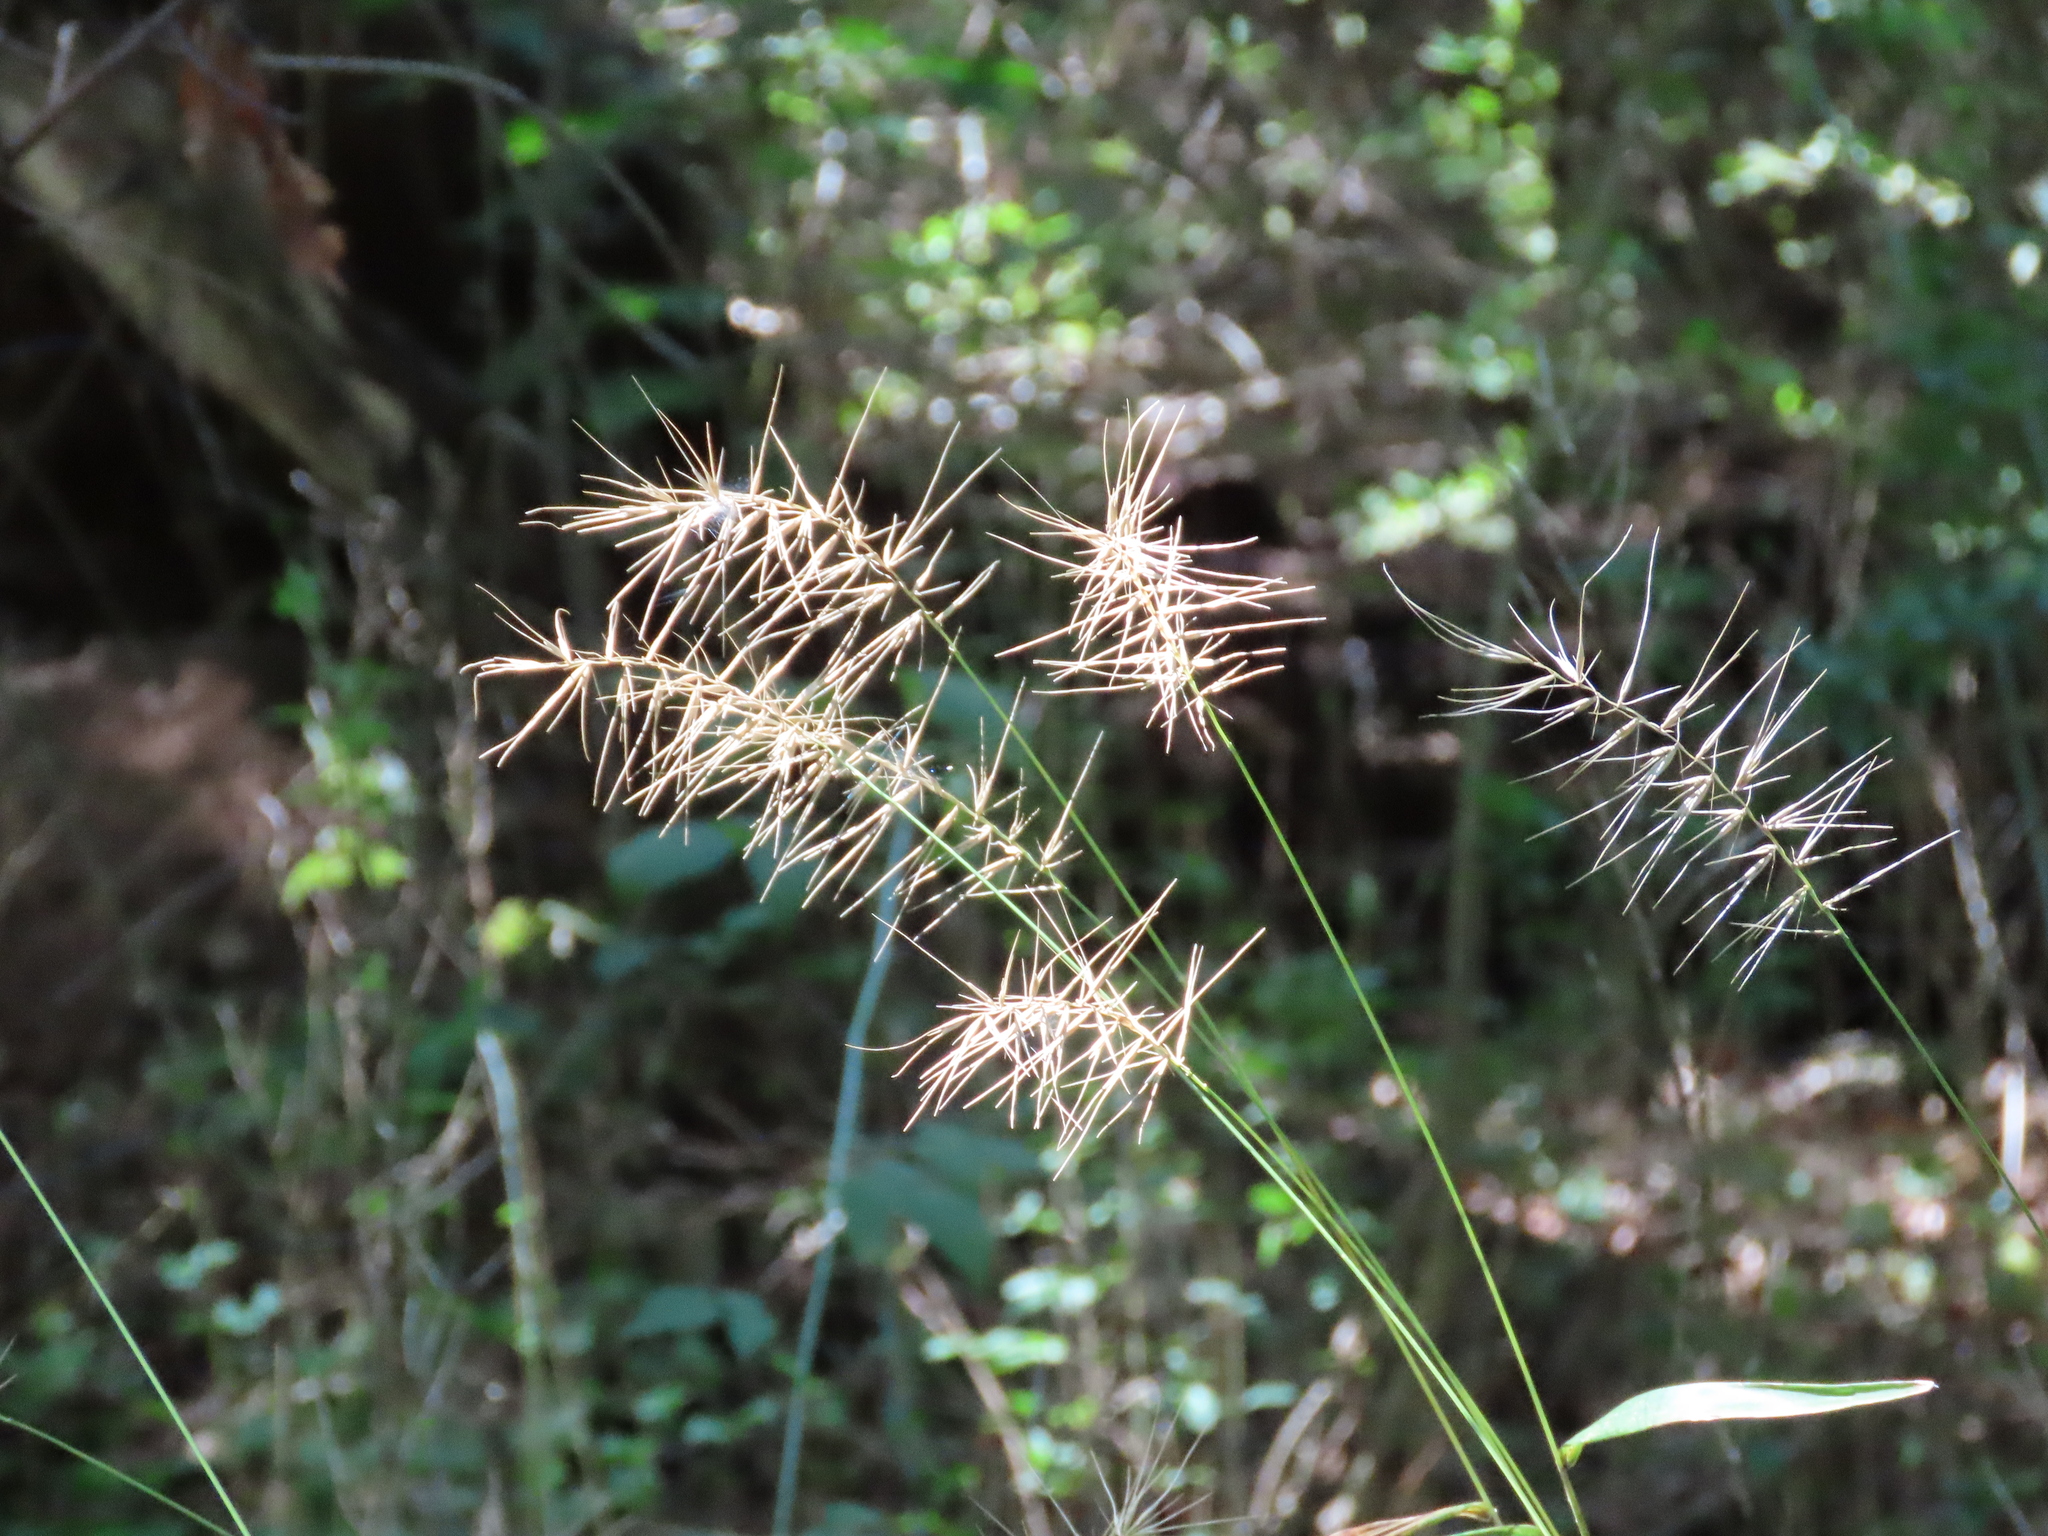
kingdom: Plantae
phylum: Tracheophyta
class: Liliopsida
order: Poales
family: Poaceae
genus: Elymus
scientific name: Elymus hystrix
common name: Bottlebrush grass
